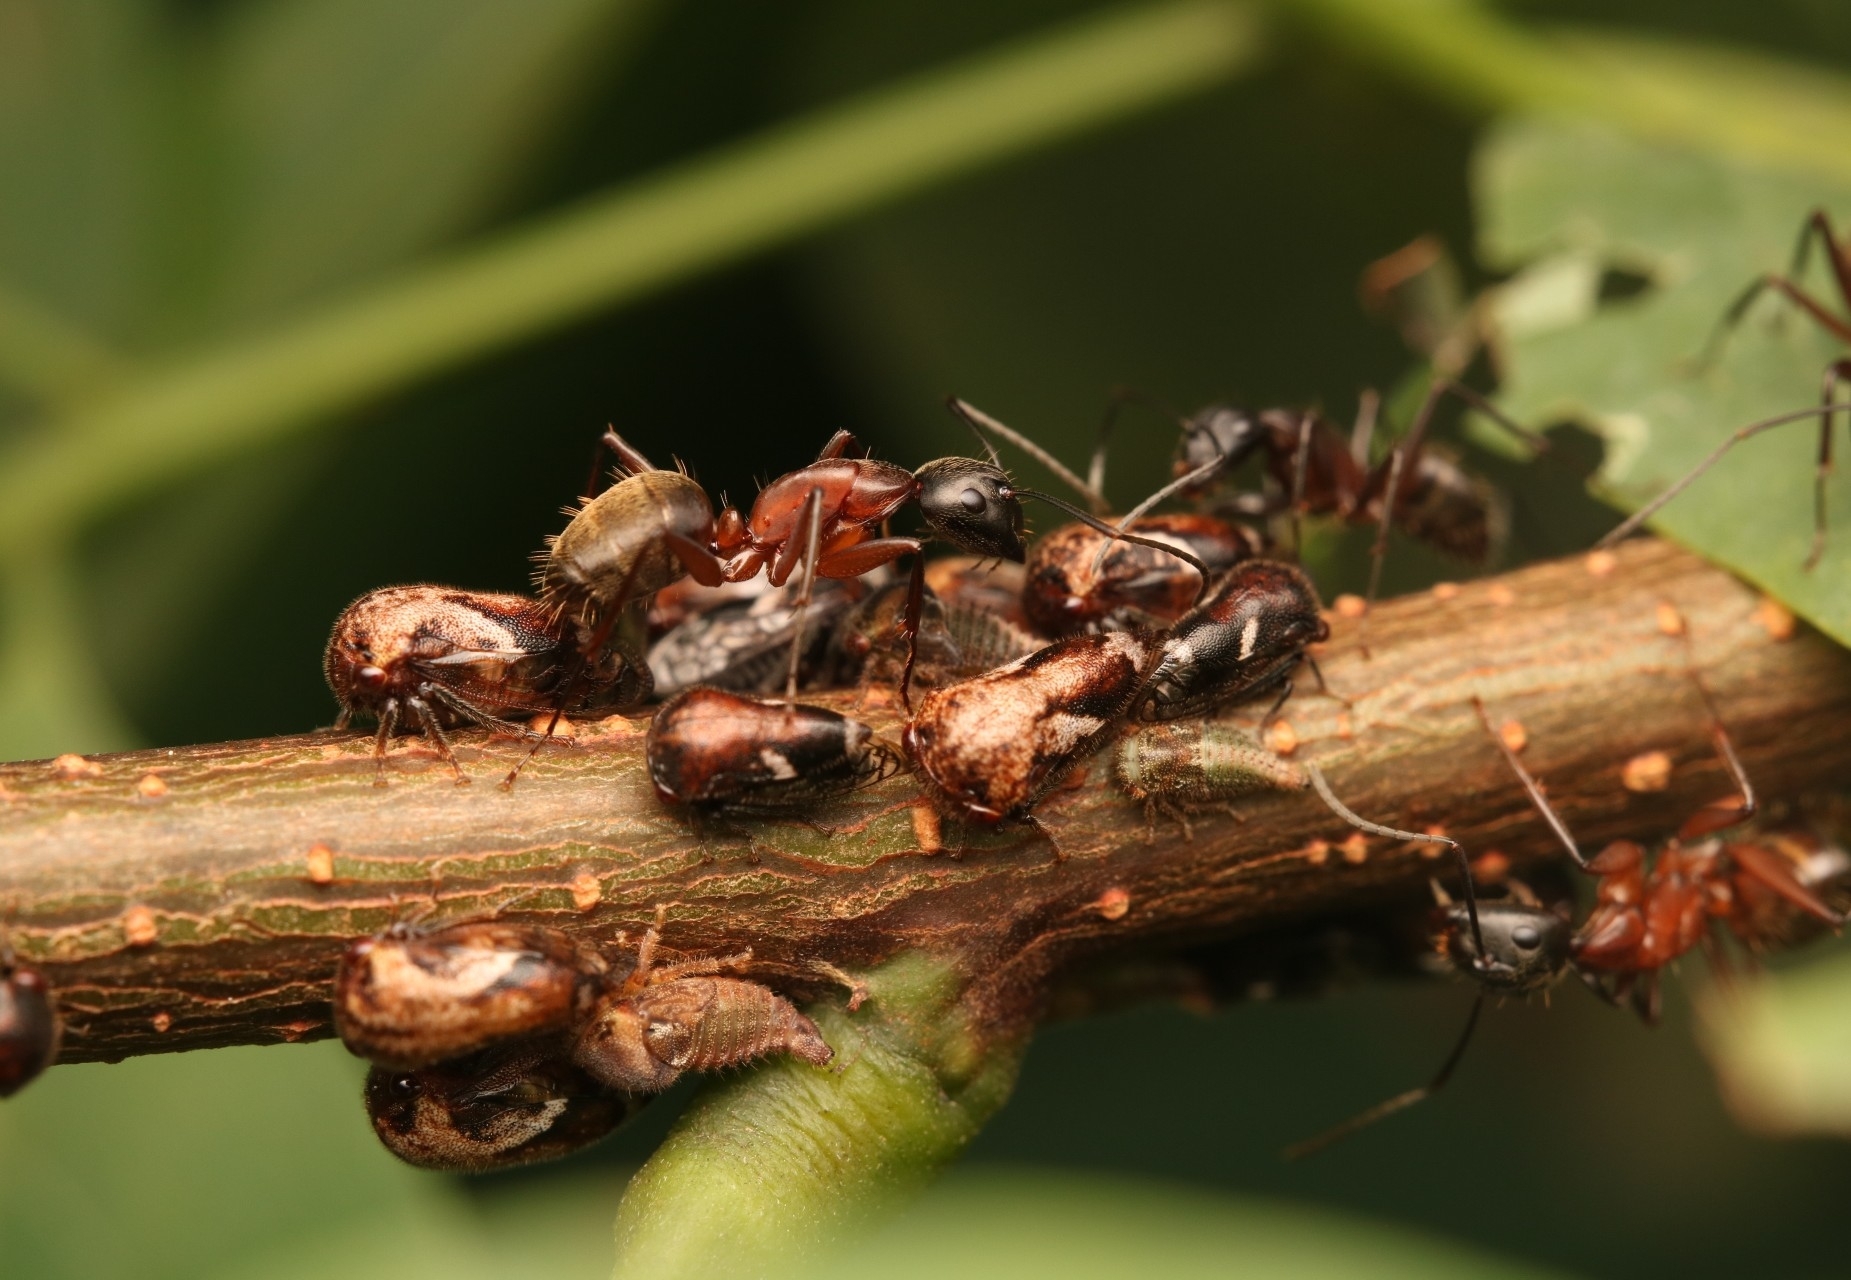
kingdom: Animalia
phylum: Arthropoda
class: Insecta
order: Hemiptera
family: Membracidae
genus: Vanduzea
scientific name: Vanduzea arquata
